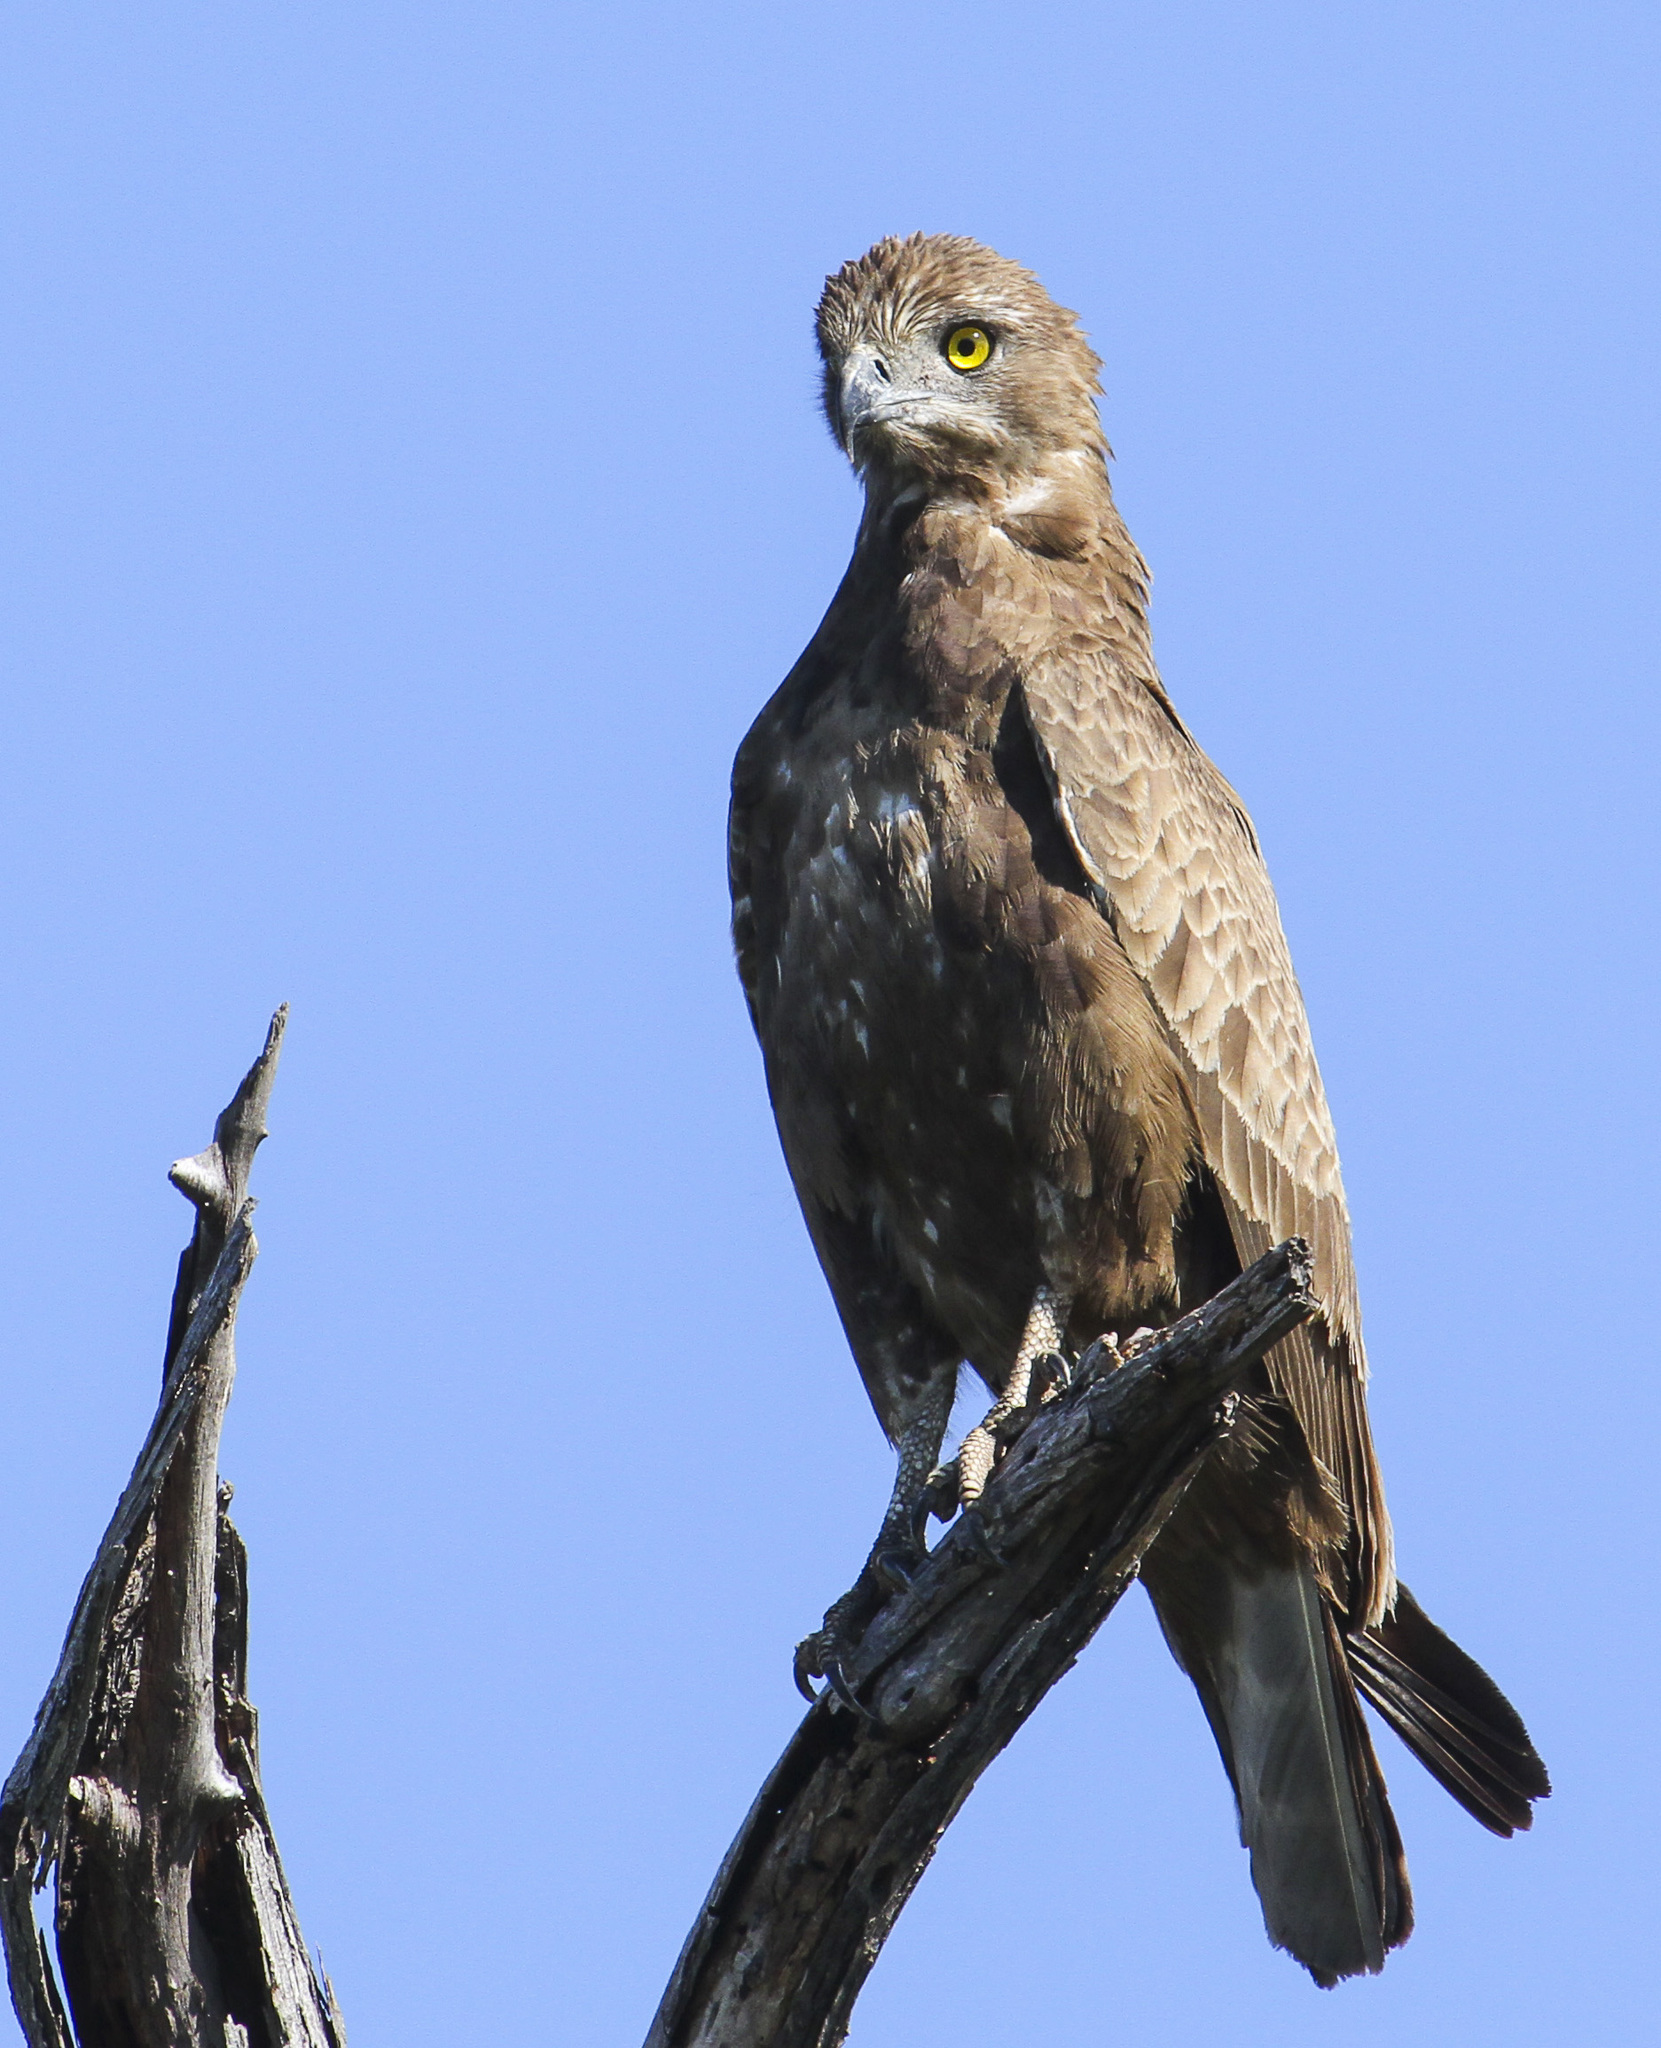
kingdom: Animalia
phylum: Chordata
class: Aves
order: Accipitriformes
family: Accipitridae
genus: Circaetus
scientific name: Circaetus cinereus
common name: Brown snake eagle
